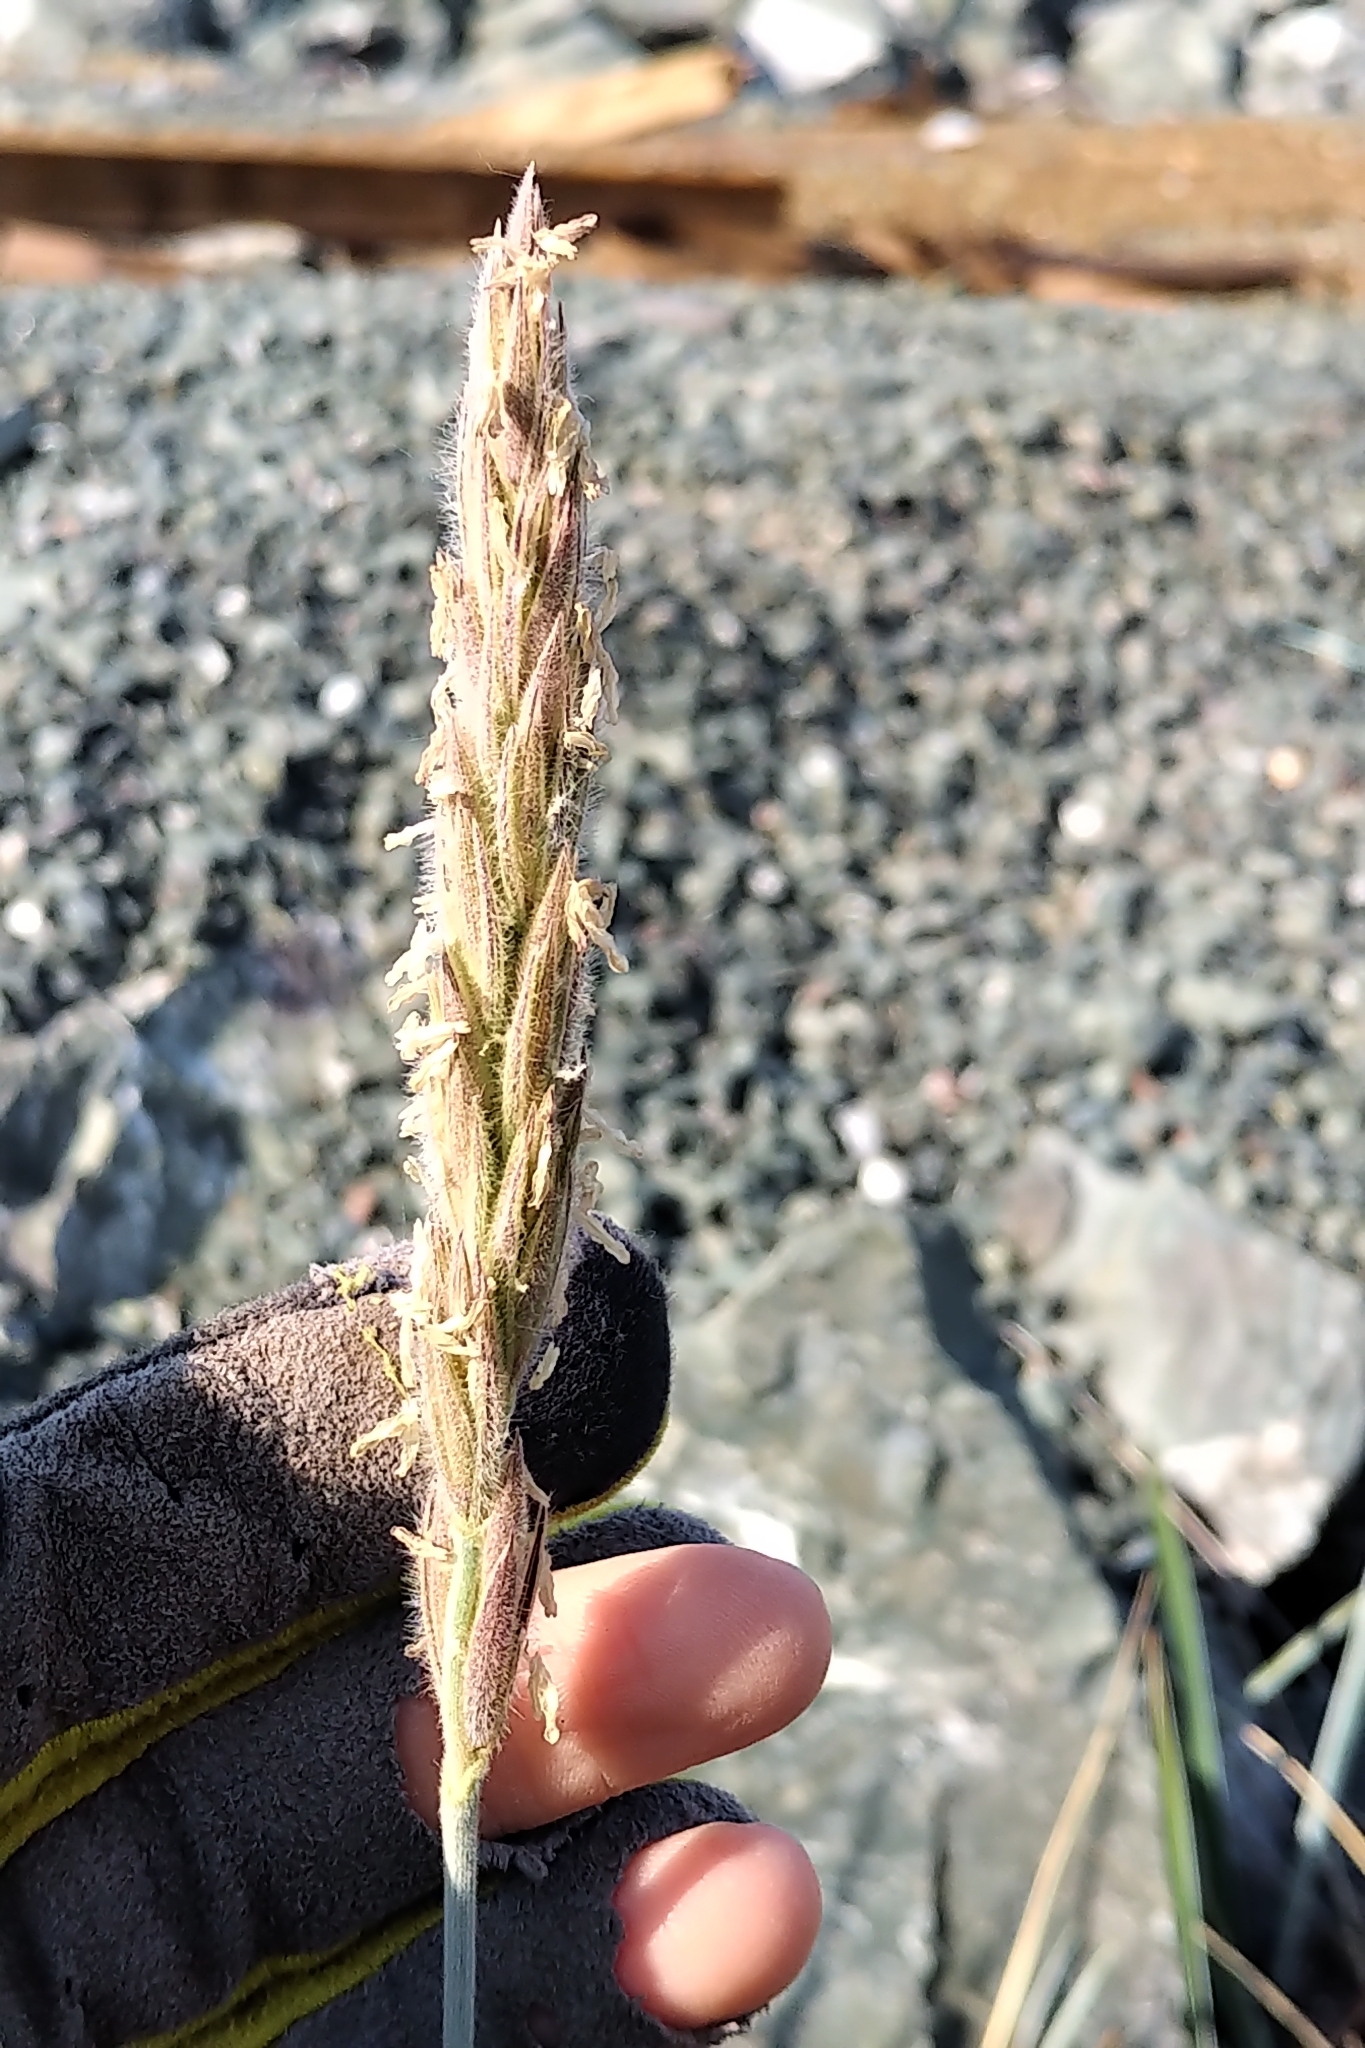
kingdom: Plantae
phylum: Tracheophyta
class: Liliopsida
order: Poales
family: Poaceae
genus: Leymus
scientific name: Leymus villosissimus
